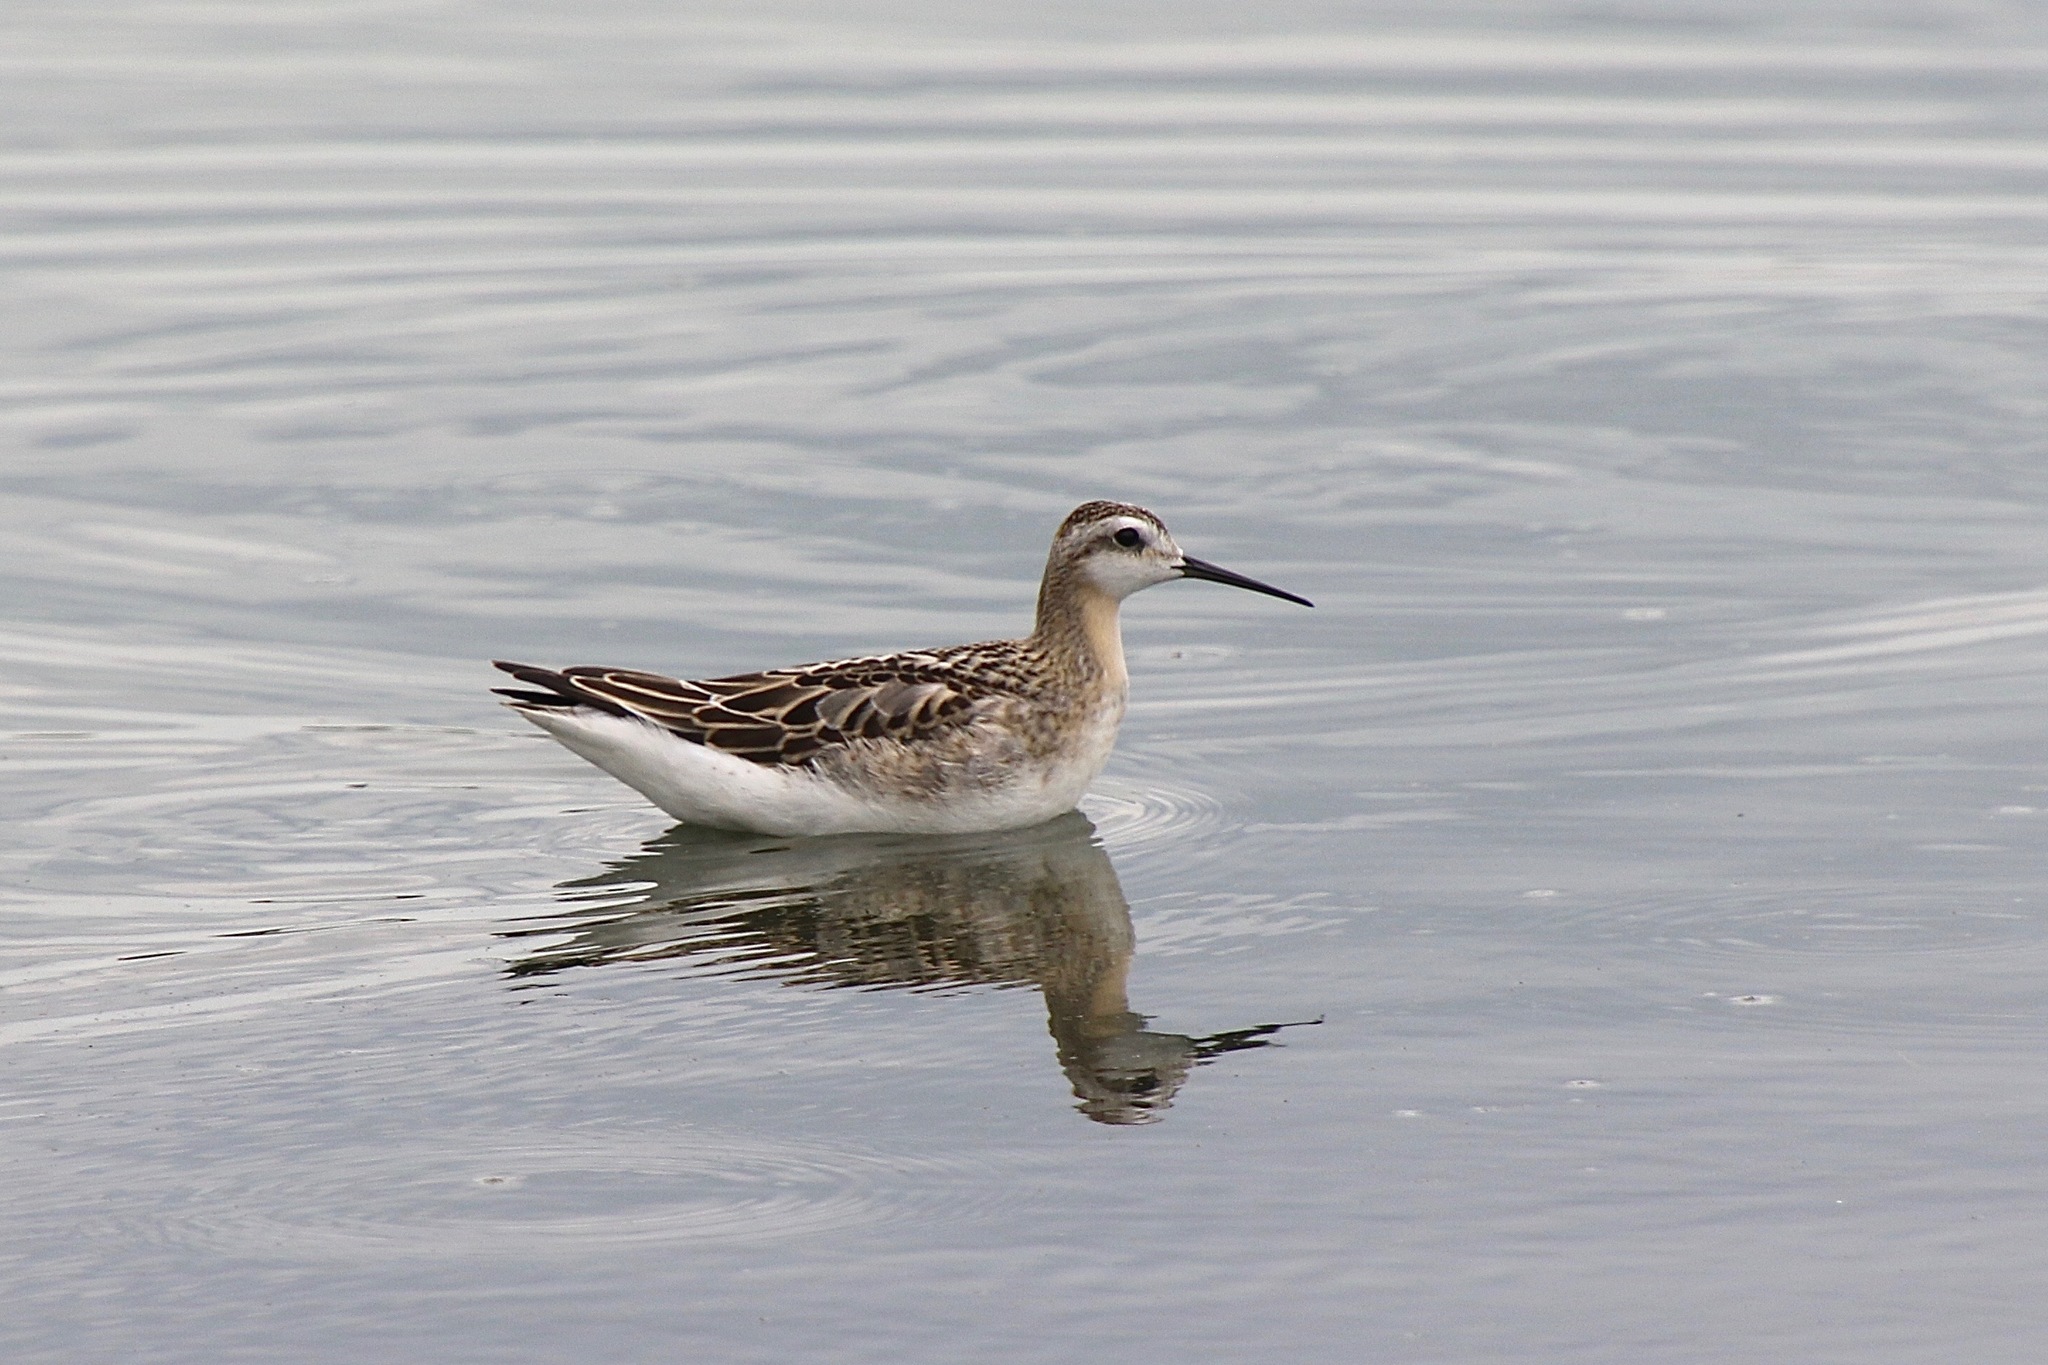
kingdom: Animalia
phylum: Chordata
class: Aves
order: Charadriiformes
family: Scolopacidae
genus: Phalaropus
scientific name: Phalaropus tricolor
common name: Wilson's phalarope
